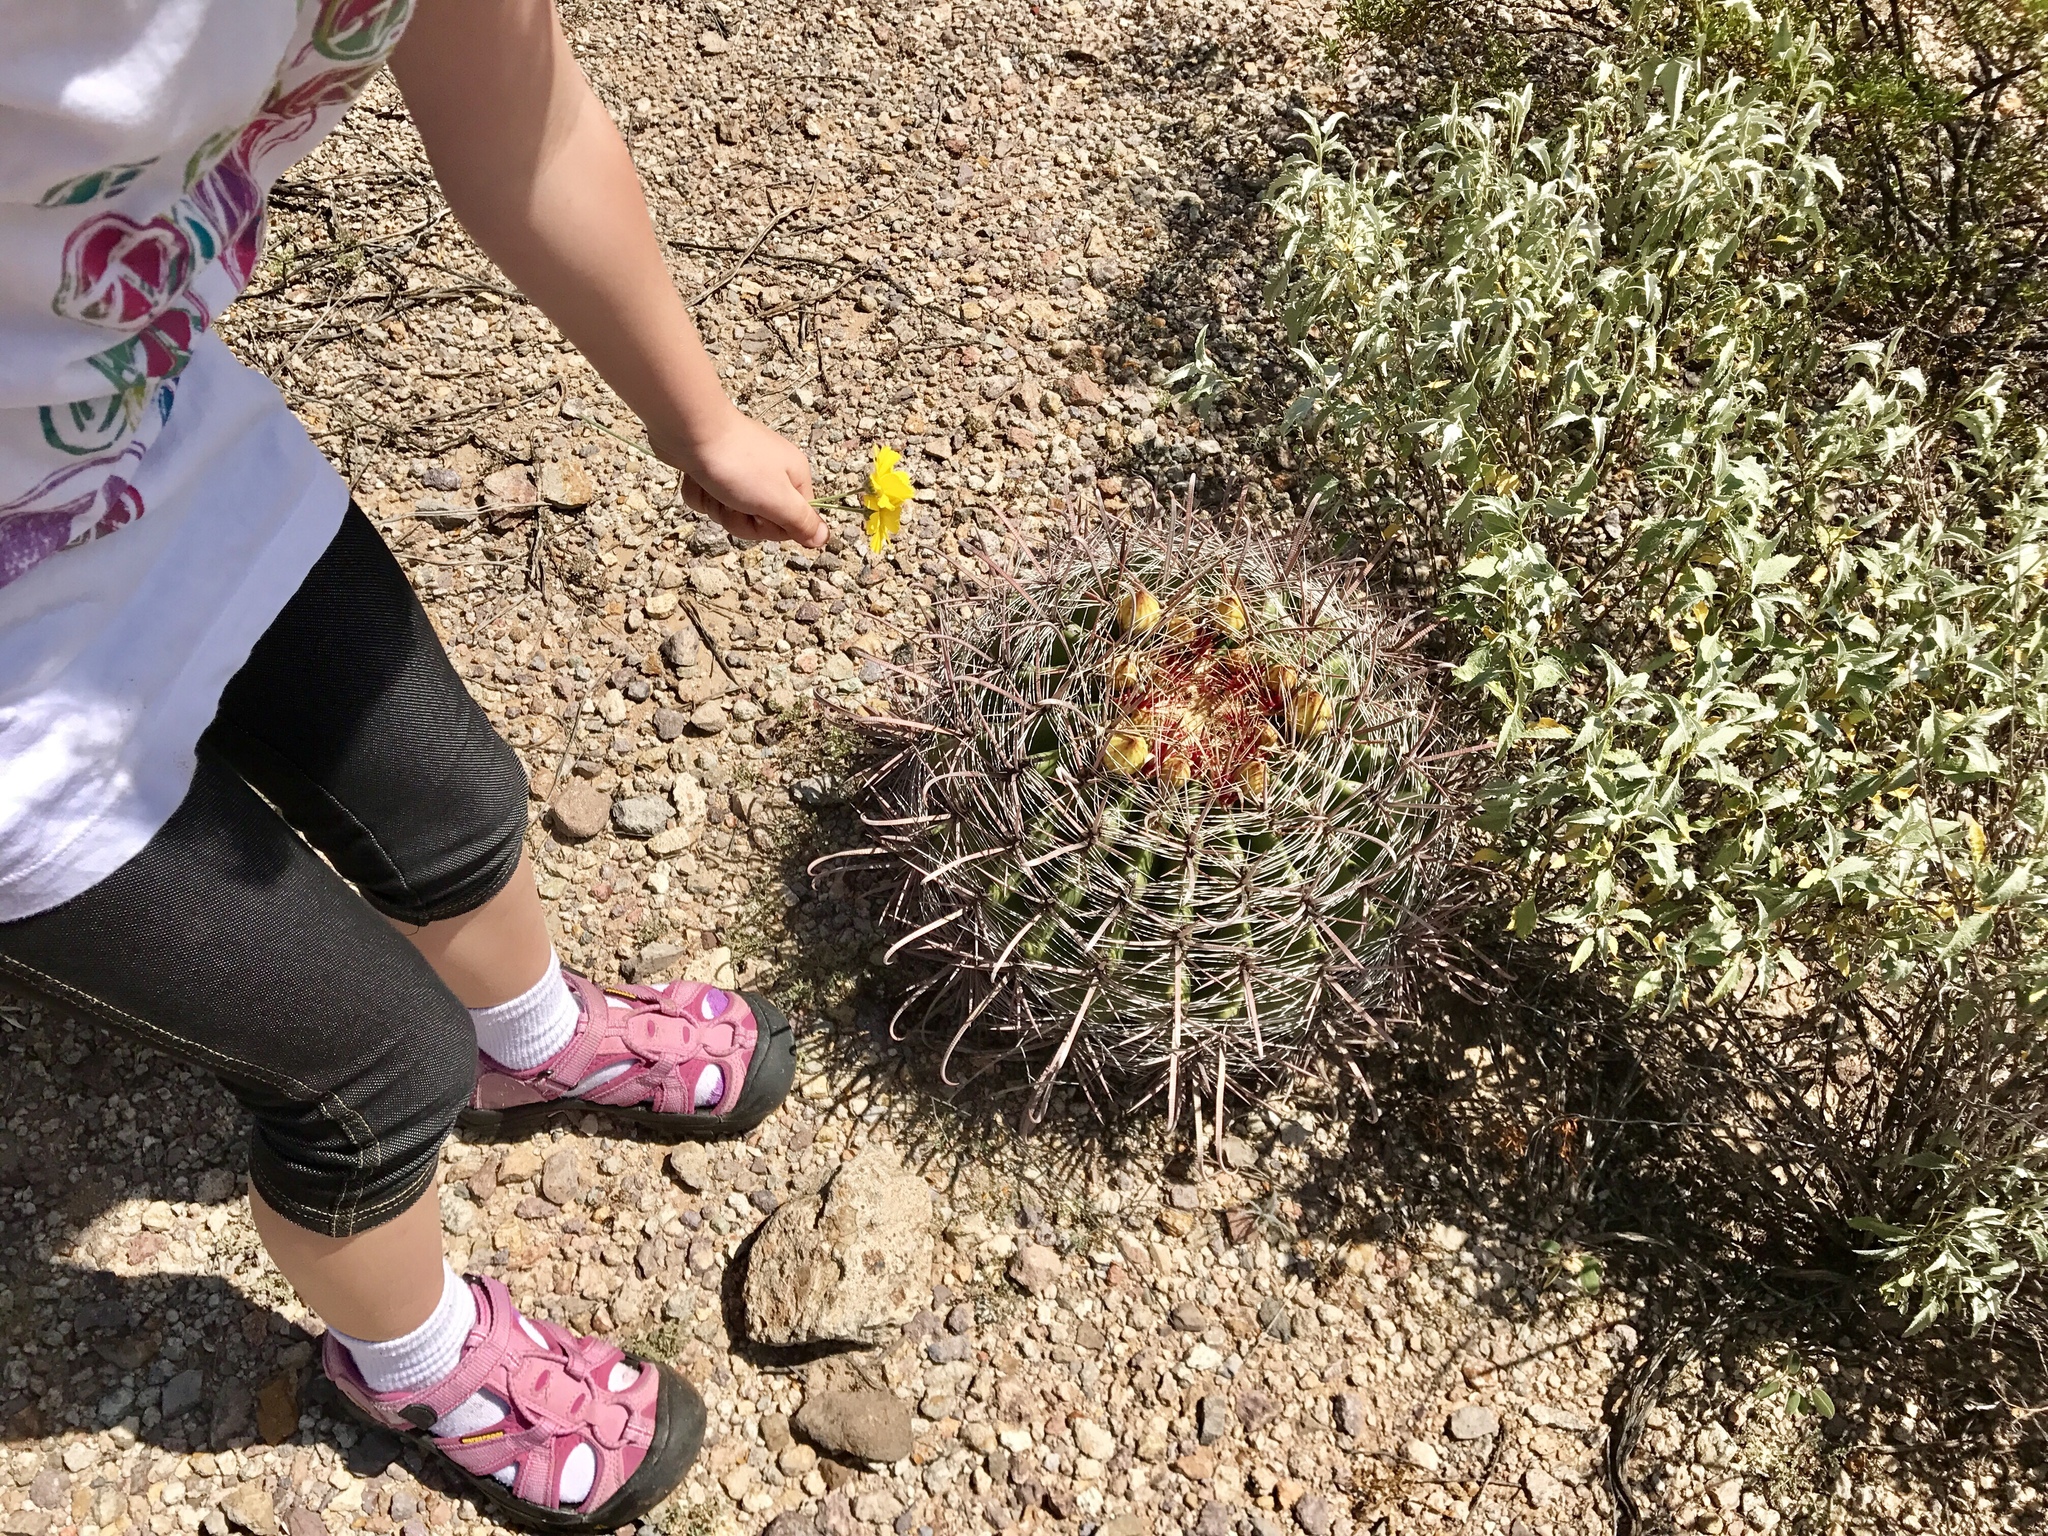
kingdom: Plantae
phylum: Tracheophyta
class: Magnoliopsida
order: Caryophyllales
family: Cactaceae
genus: Ferocactus
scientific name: Ferocactus wislizeni
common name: Candy barrel cactus
